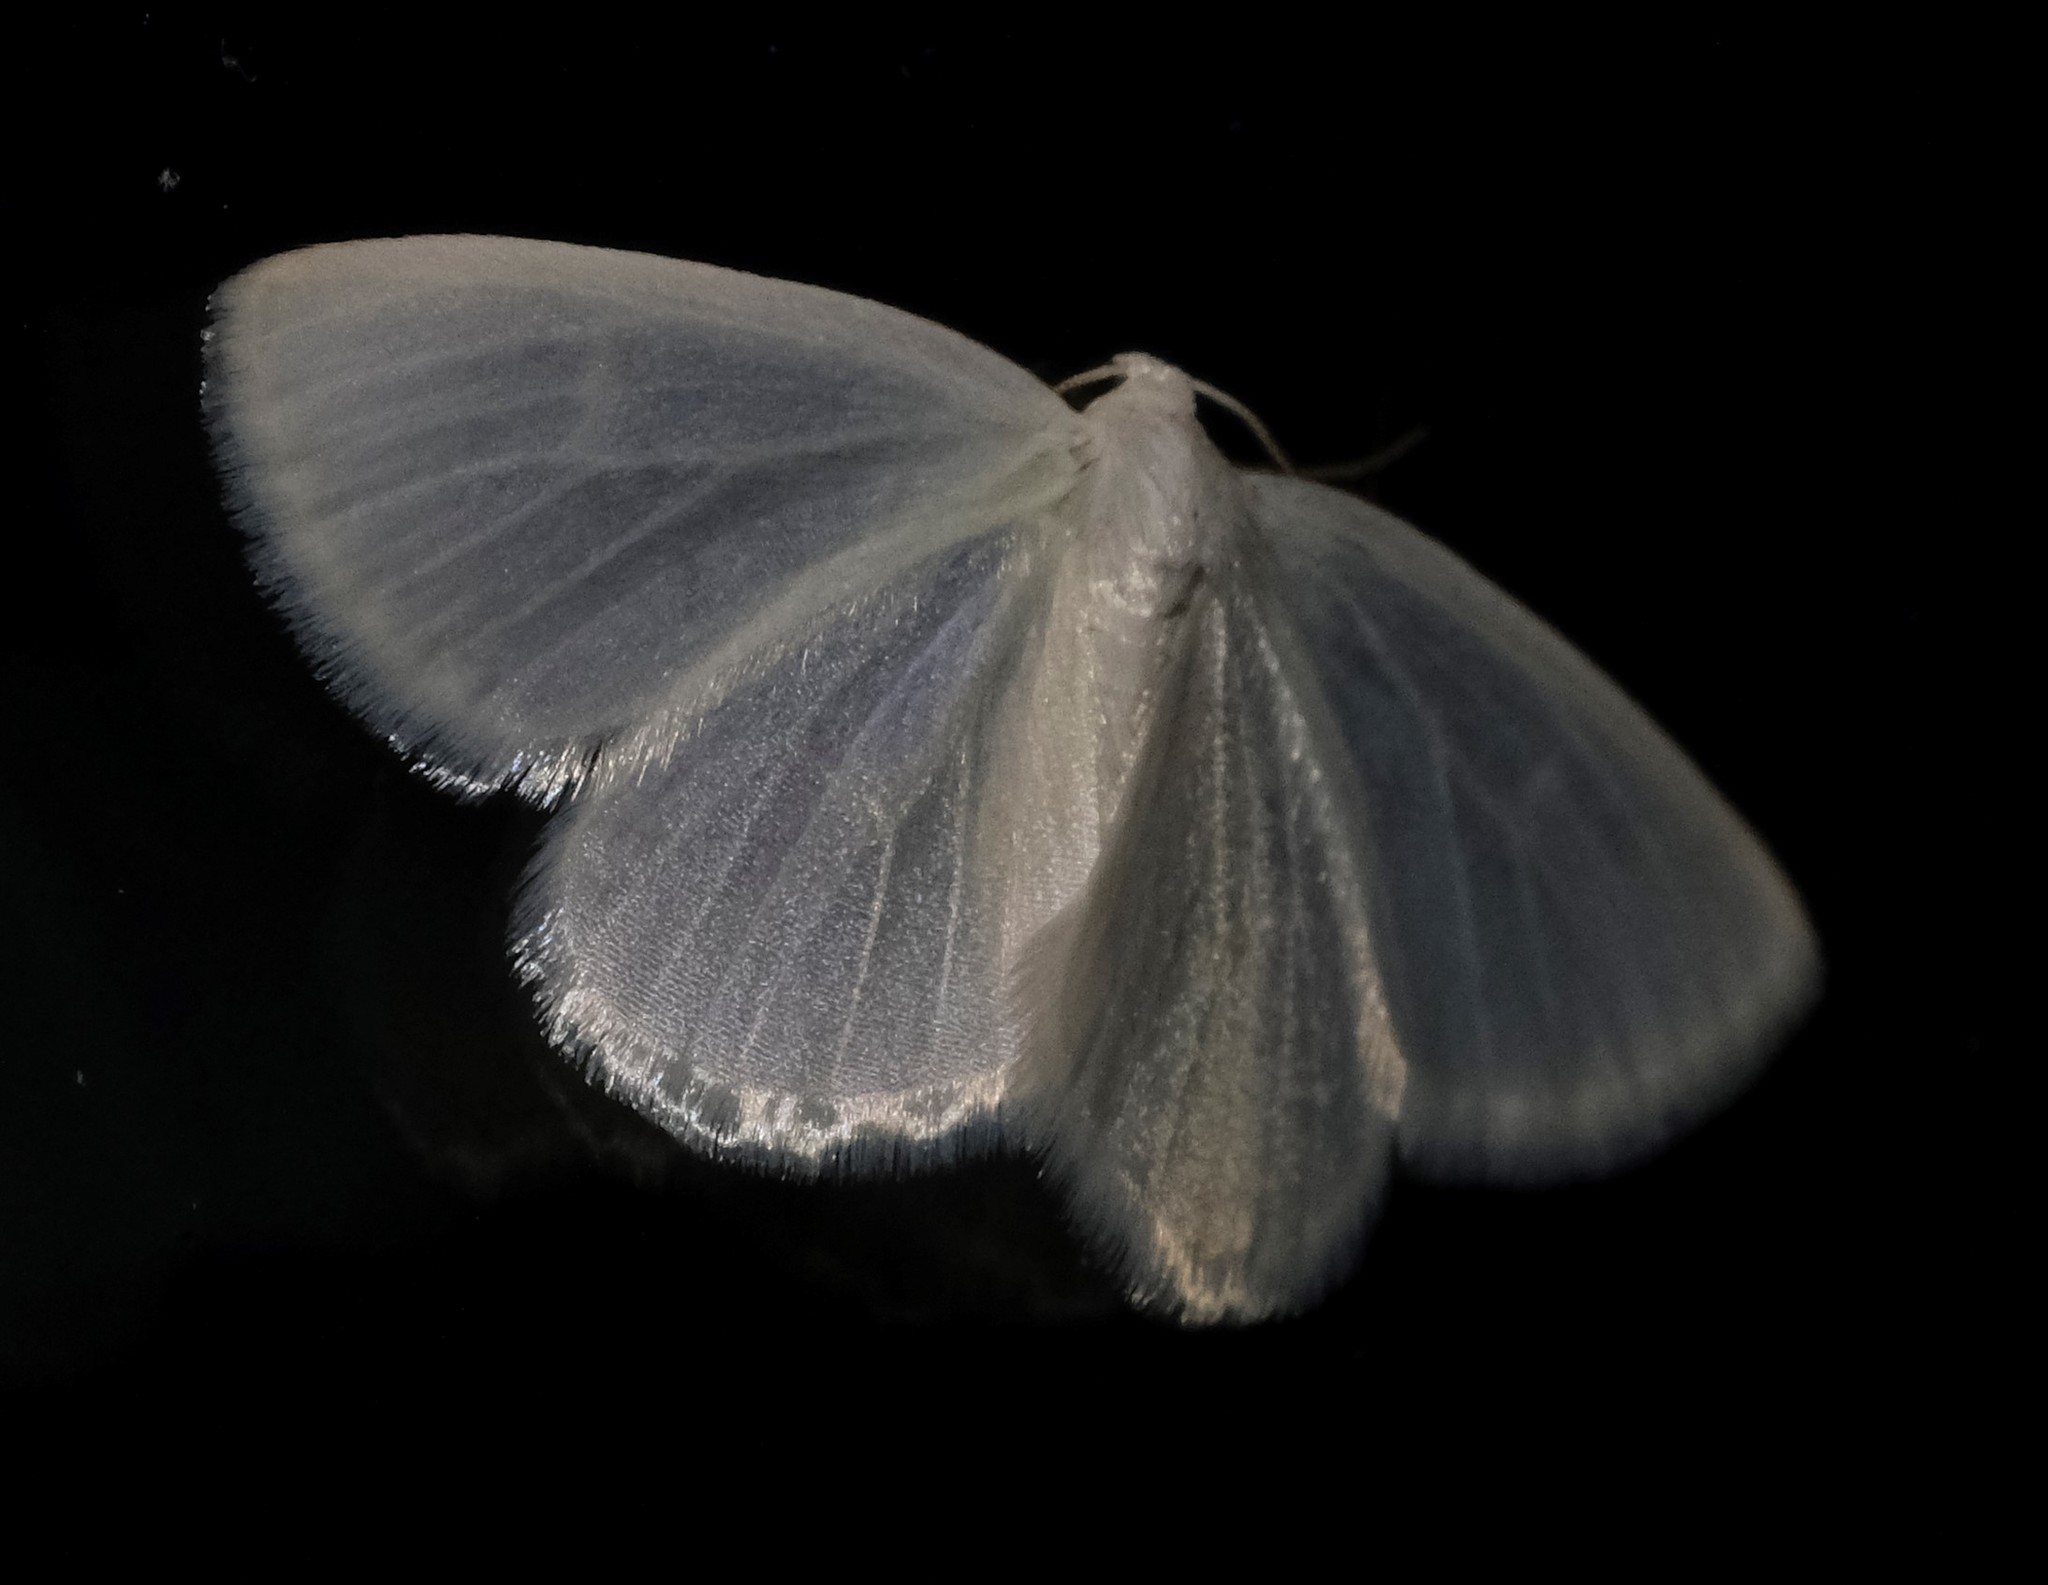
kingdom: Animalia
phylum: Arthropoda
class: Insecta
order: Lepidoptera
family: Geometridae
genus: Lomographa
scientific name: Lomographa vestaliata
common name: White spring moth
